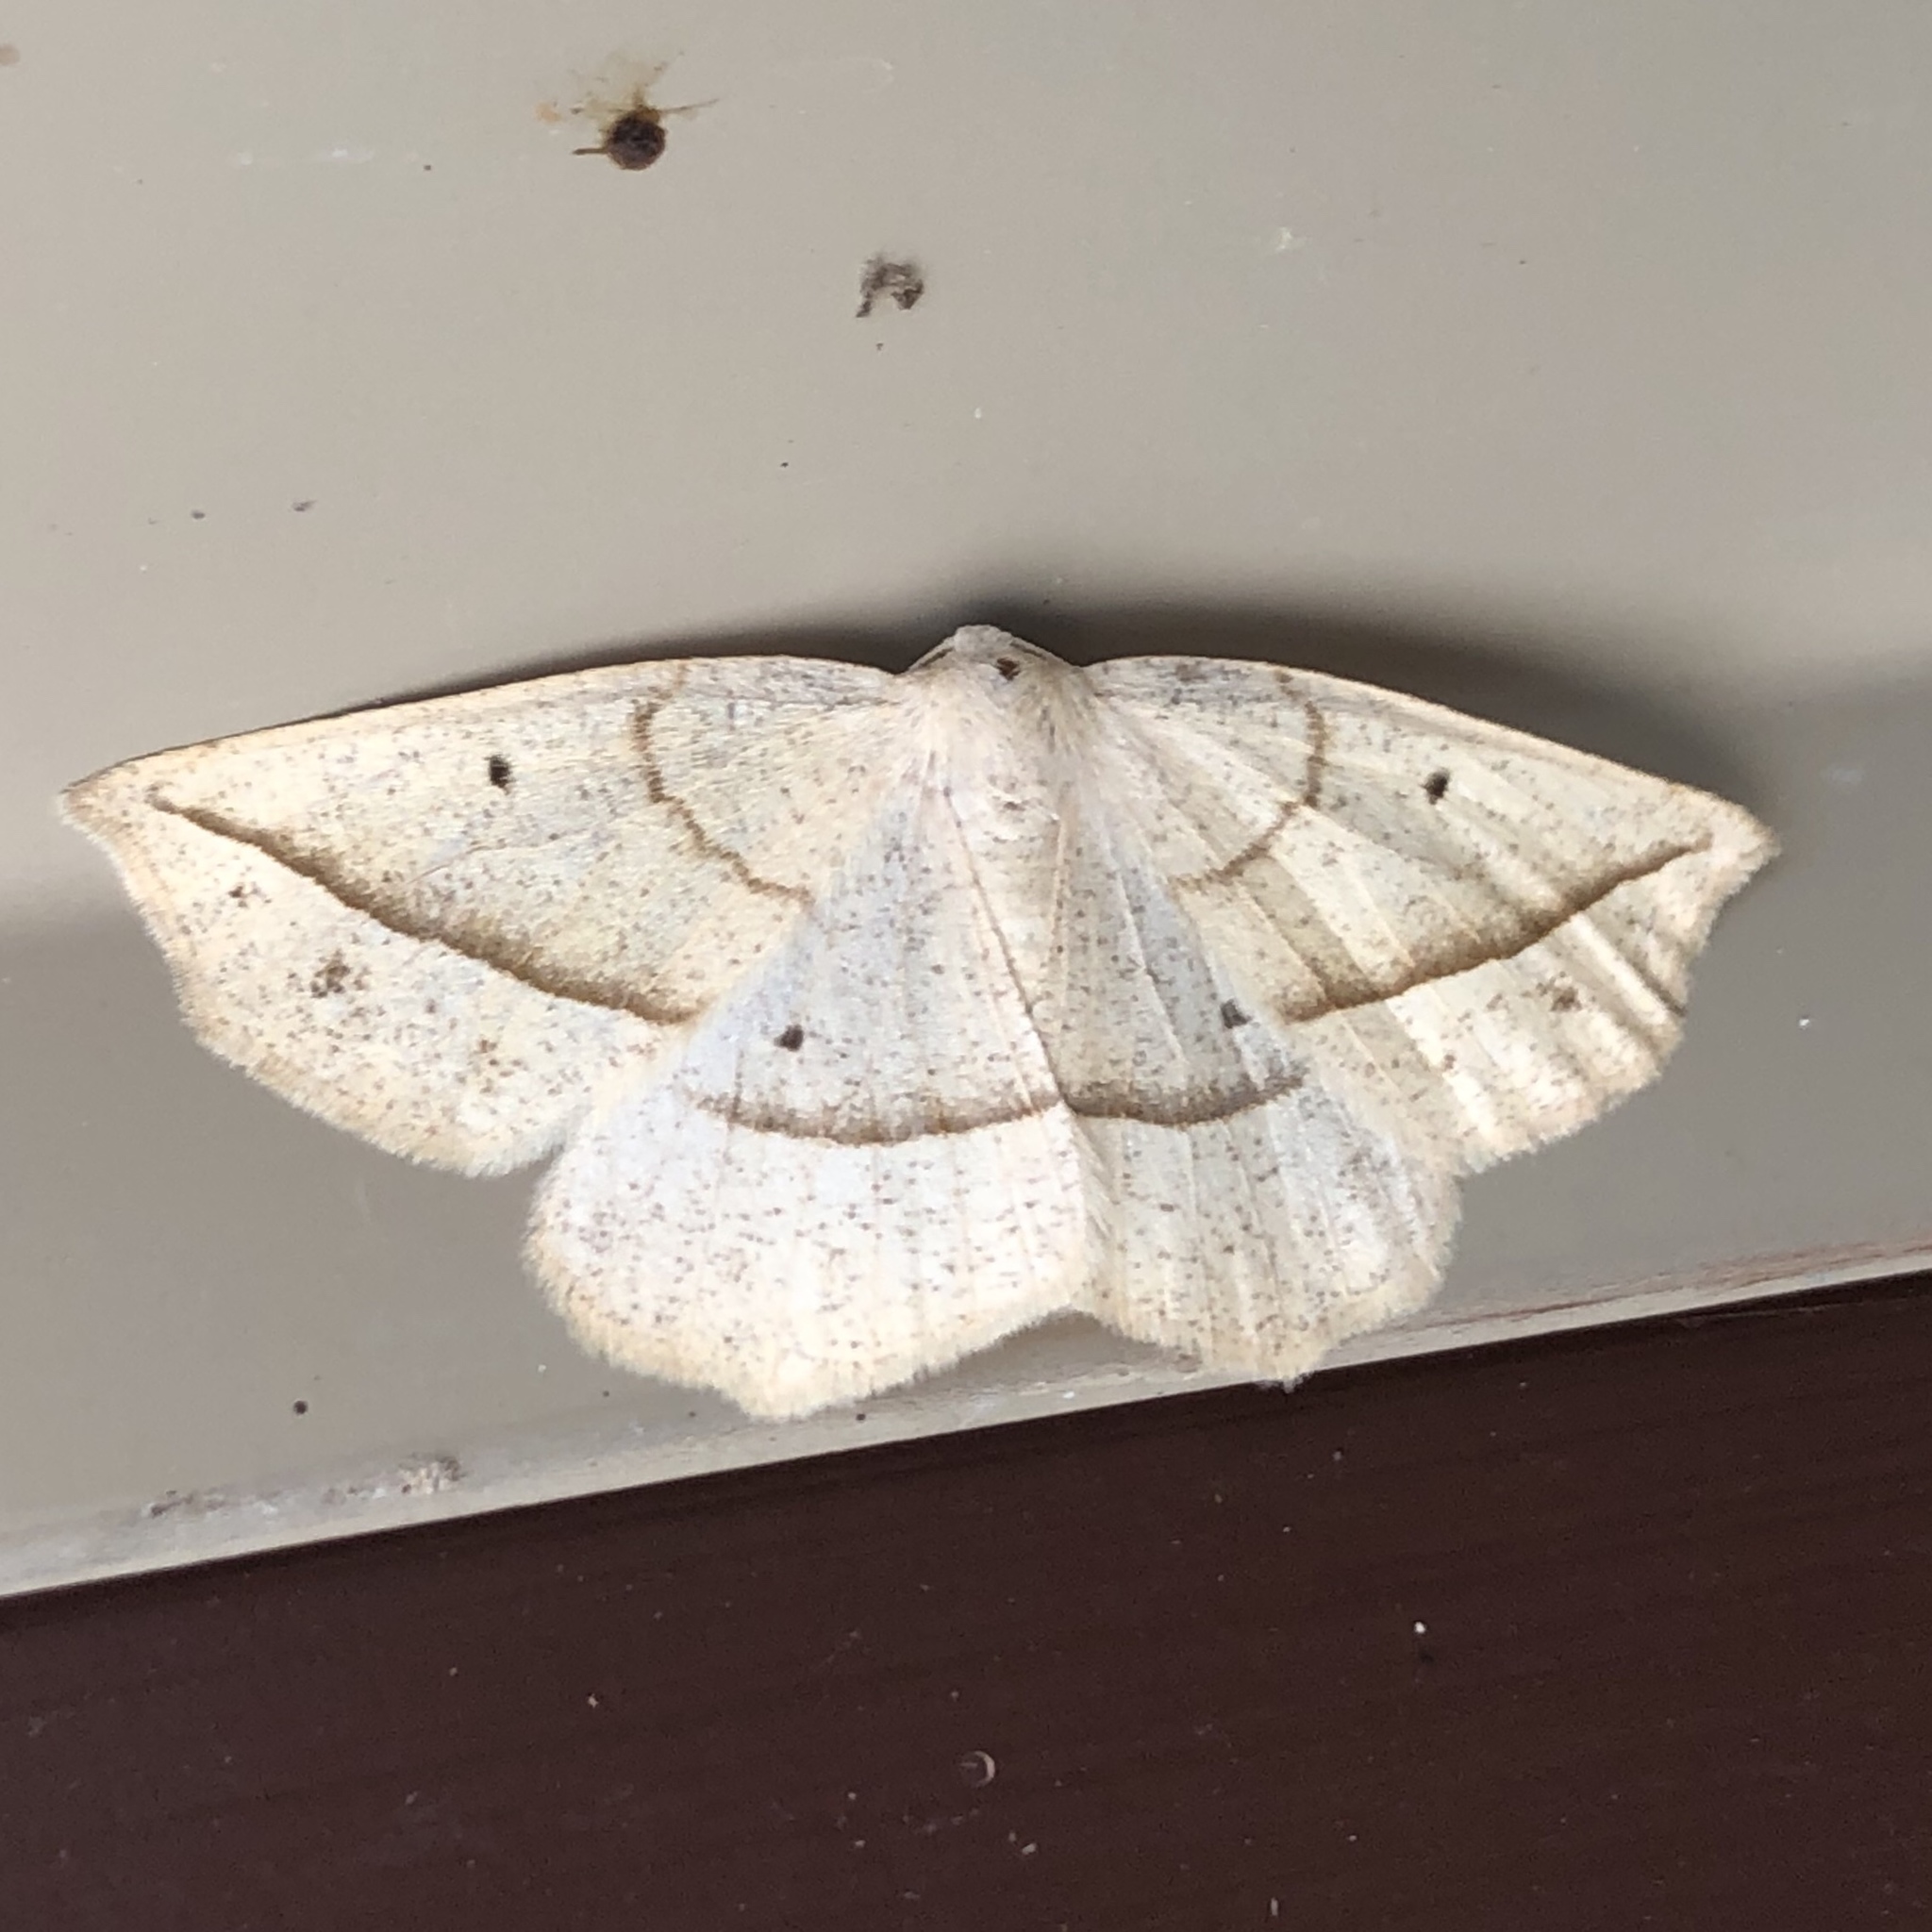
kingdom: Animalia
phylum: Arthropoda
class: Insecta
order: Lepidoptera
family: Geometridae
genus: Eusarca
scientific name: Eusarca confusaria
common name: Confused eusarca
